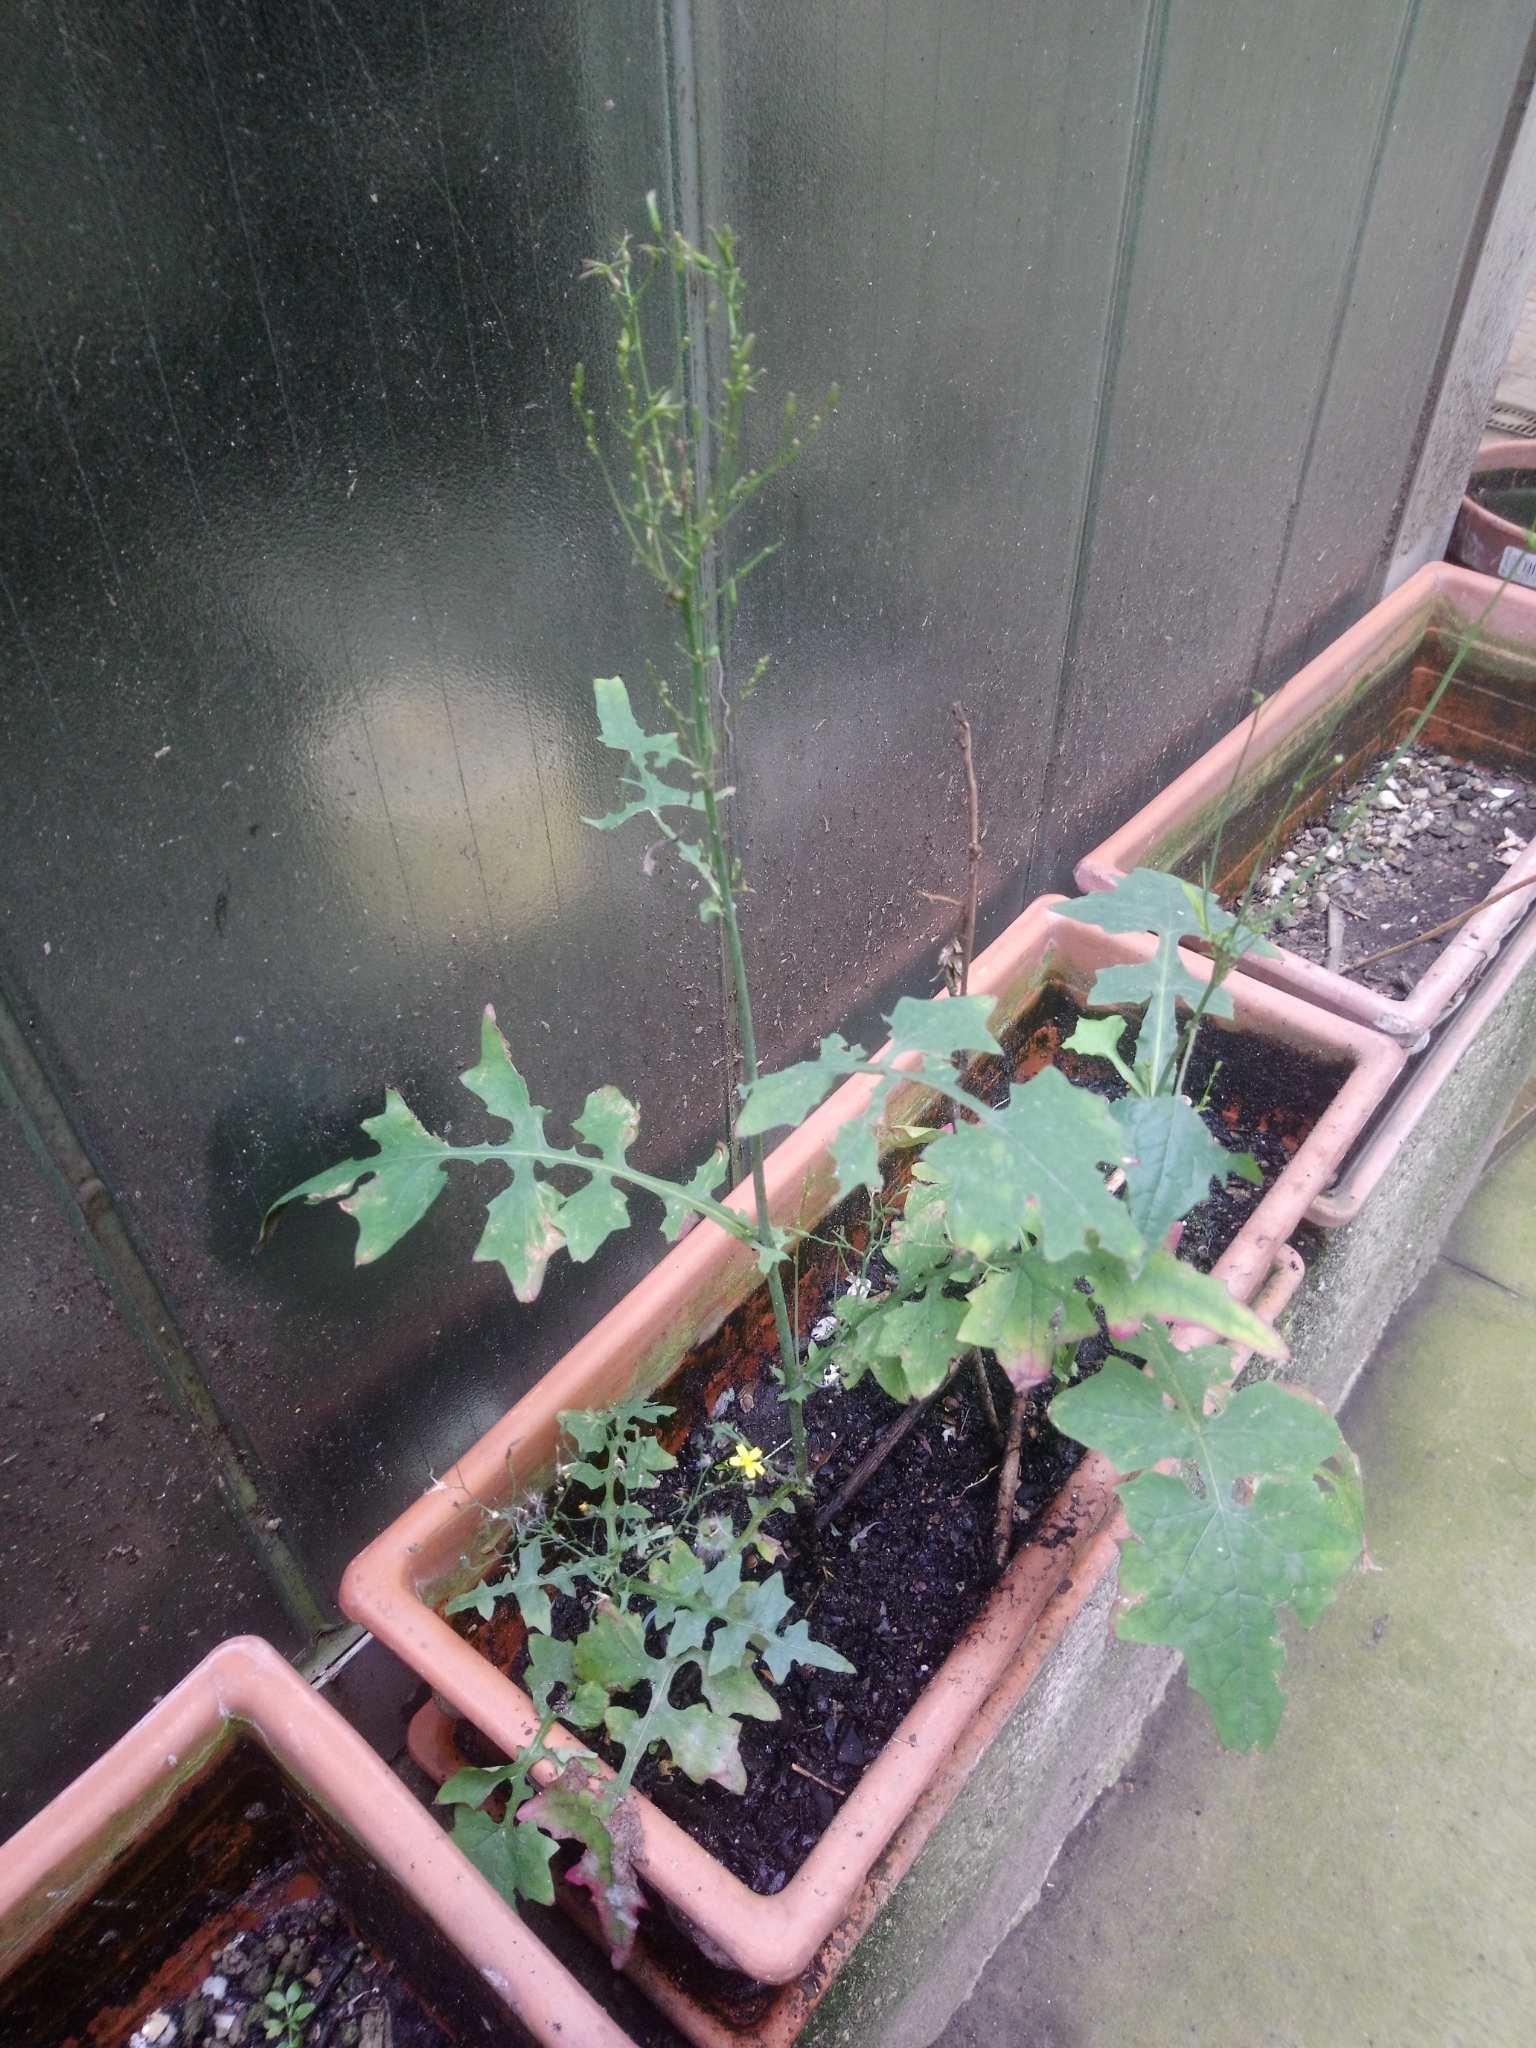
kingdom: Plantae
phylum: Tracheophyta
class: Magnoliopsida
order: Asterales
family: Asteraceae
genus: Mycelis
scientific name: Mycelis muralis
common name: Wall lettuce
